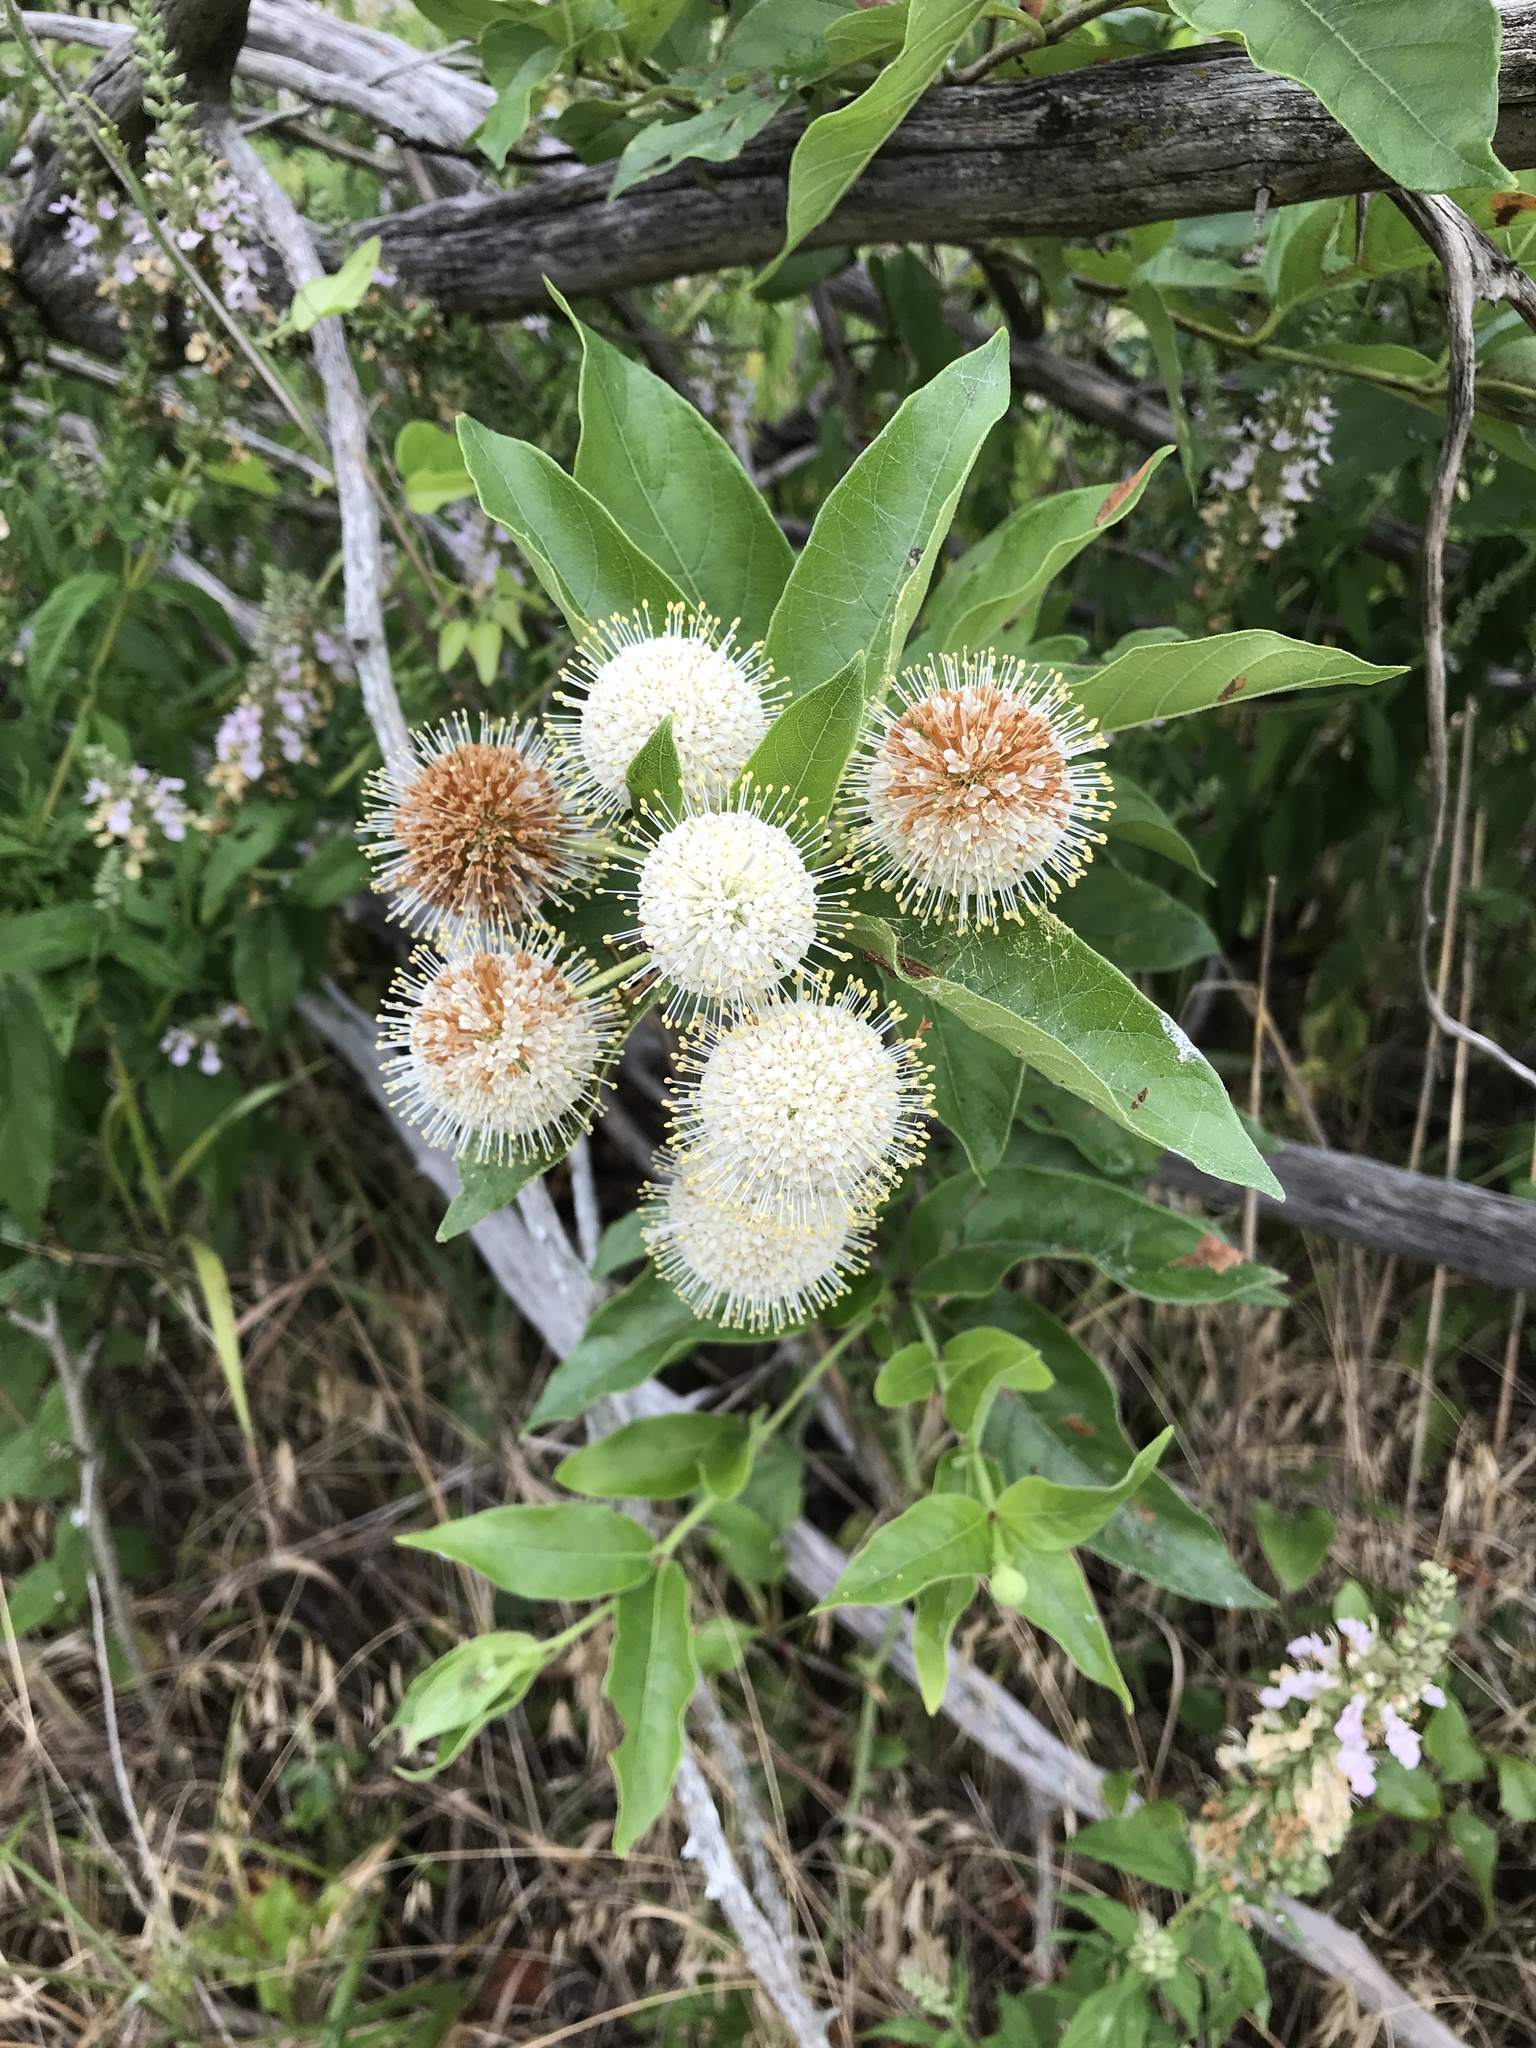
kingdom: Plantae
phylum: Tracheophyta
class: Magnoliopsida
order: Gentianales
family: Rubiaceae
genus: Cephalanthus
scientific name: Cephalanthus occidentalis
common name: Button-willow
